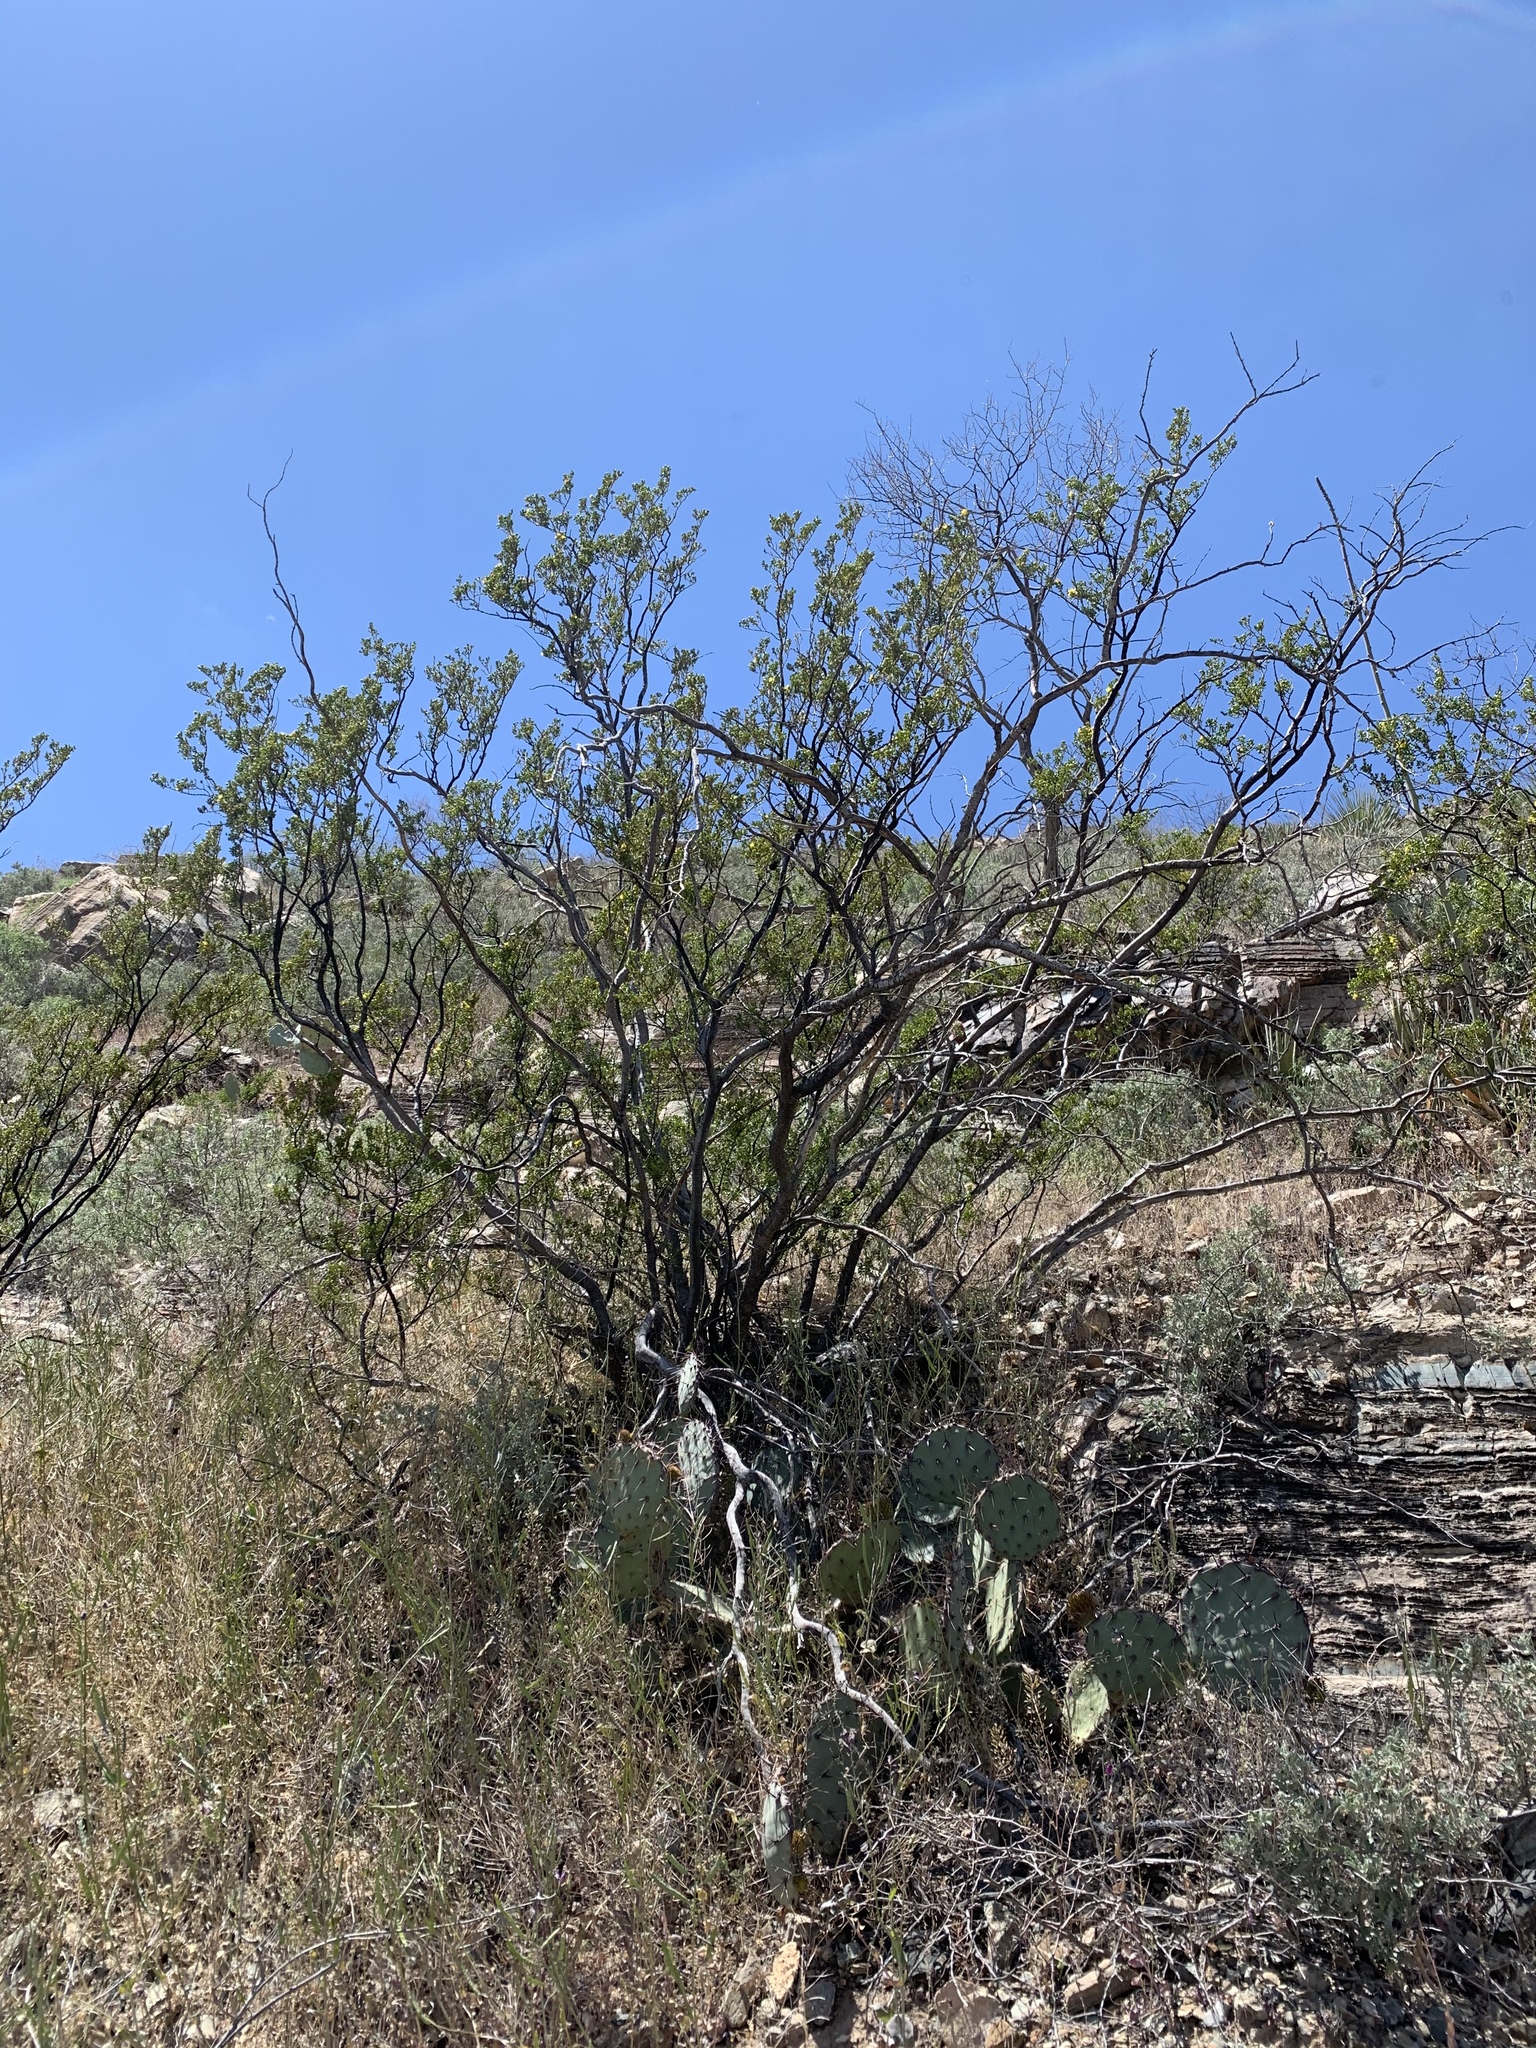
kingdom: Plantae
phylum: Tracheophyta
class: Magnoliopsida
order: Zygophyllales
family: Zygophyllaceae
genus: Larrea
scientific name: Larrea tridentata
